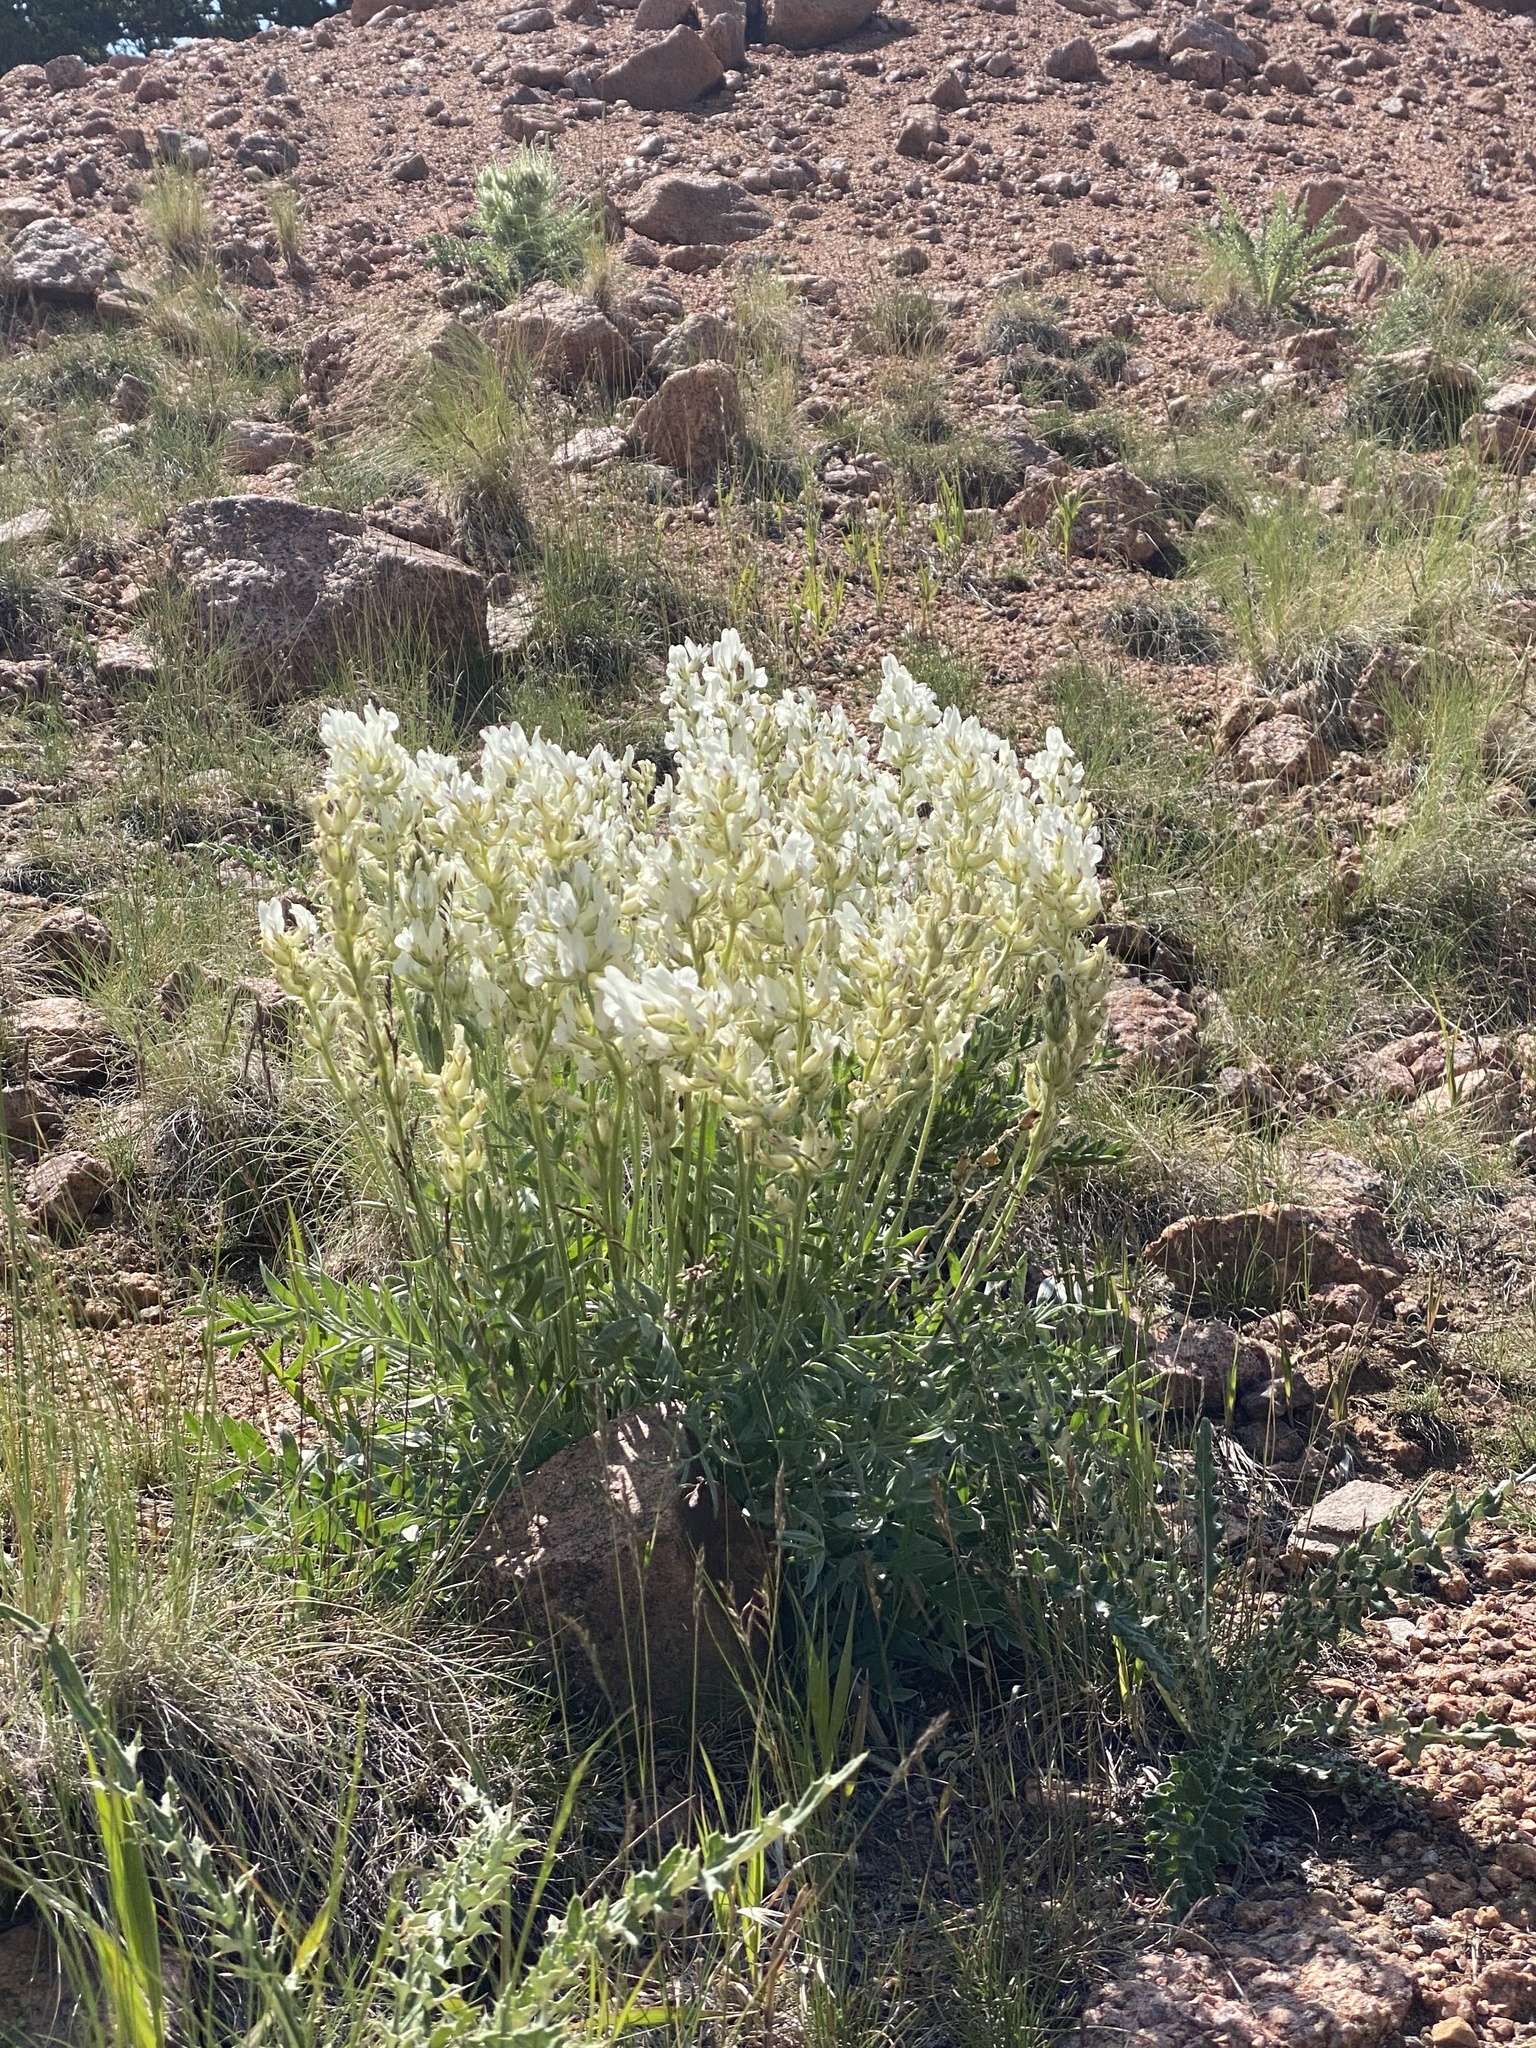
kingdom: Plantae
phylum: Tracheophyta
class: Magnoliopsida
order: Fabales
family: Fabaceae
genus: Oxytropis
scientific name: Oxytropis sericea
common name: Silky locoweed
